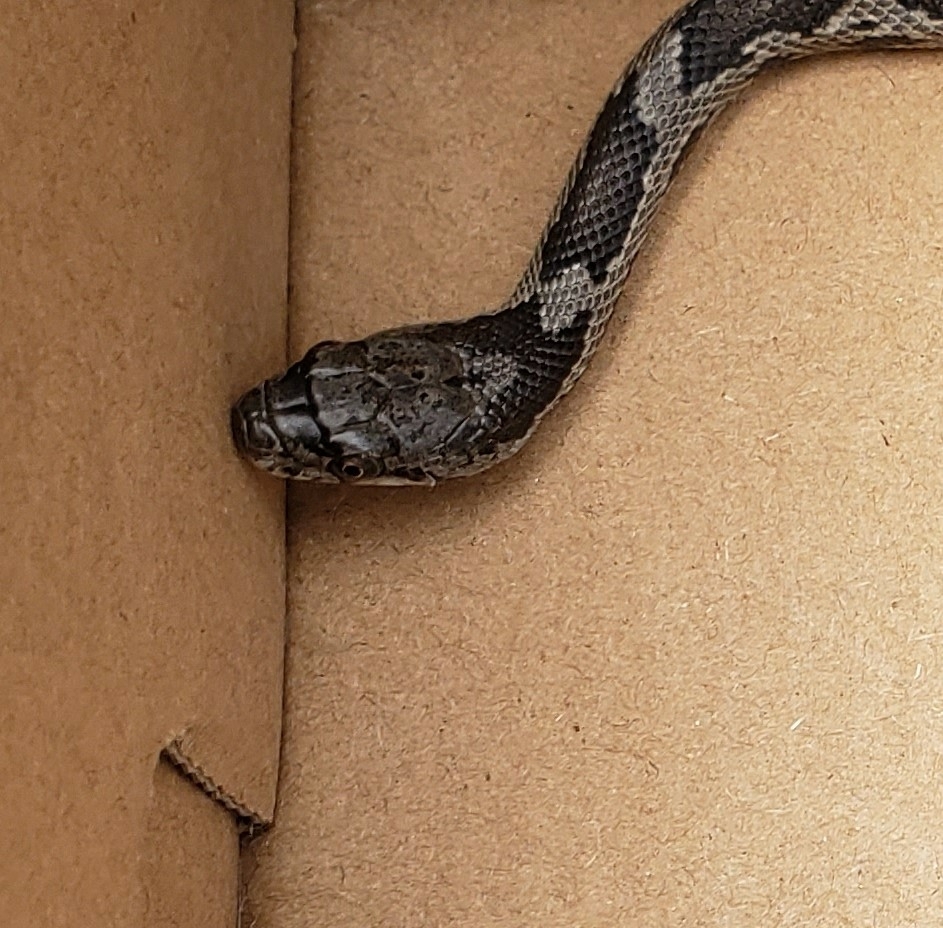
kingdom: Animalia
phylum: Chordata
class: Squamata
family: Colubridae
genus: Pantherophis
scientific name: Pantherophis alleghaniensis
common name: Eastern rat snake
